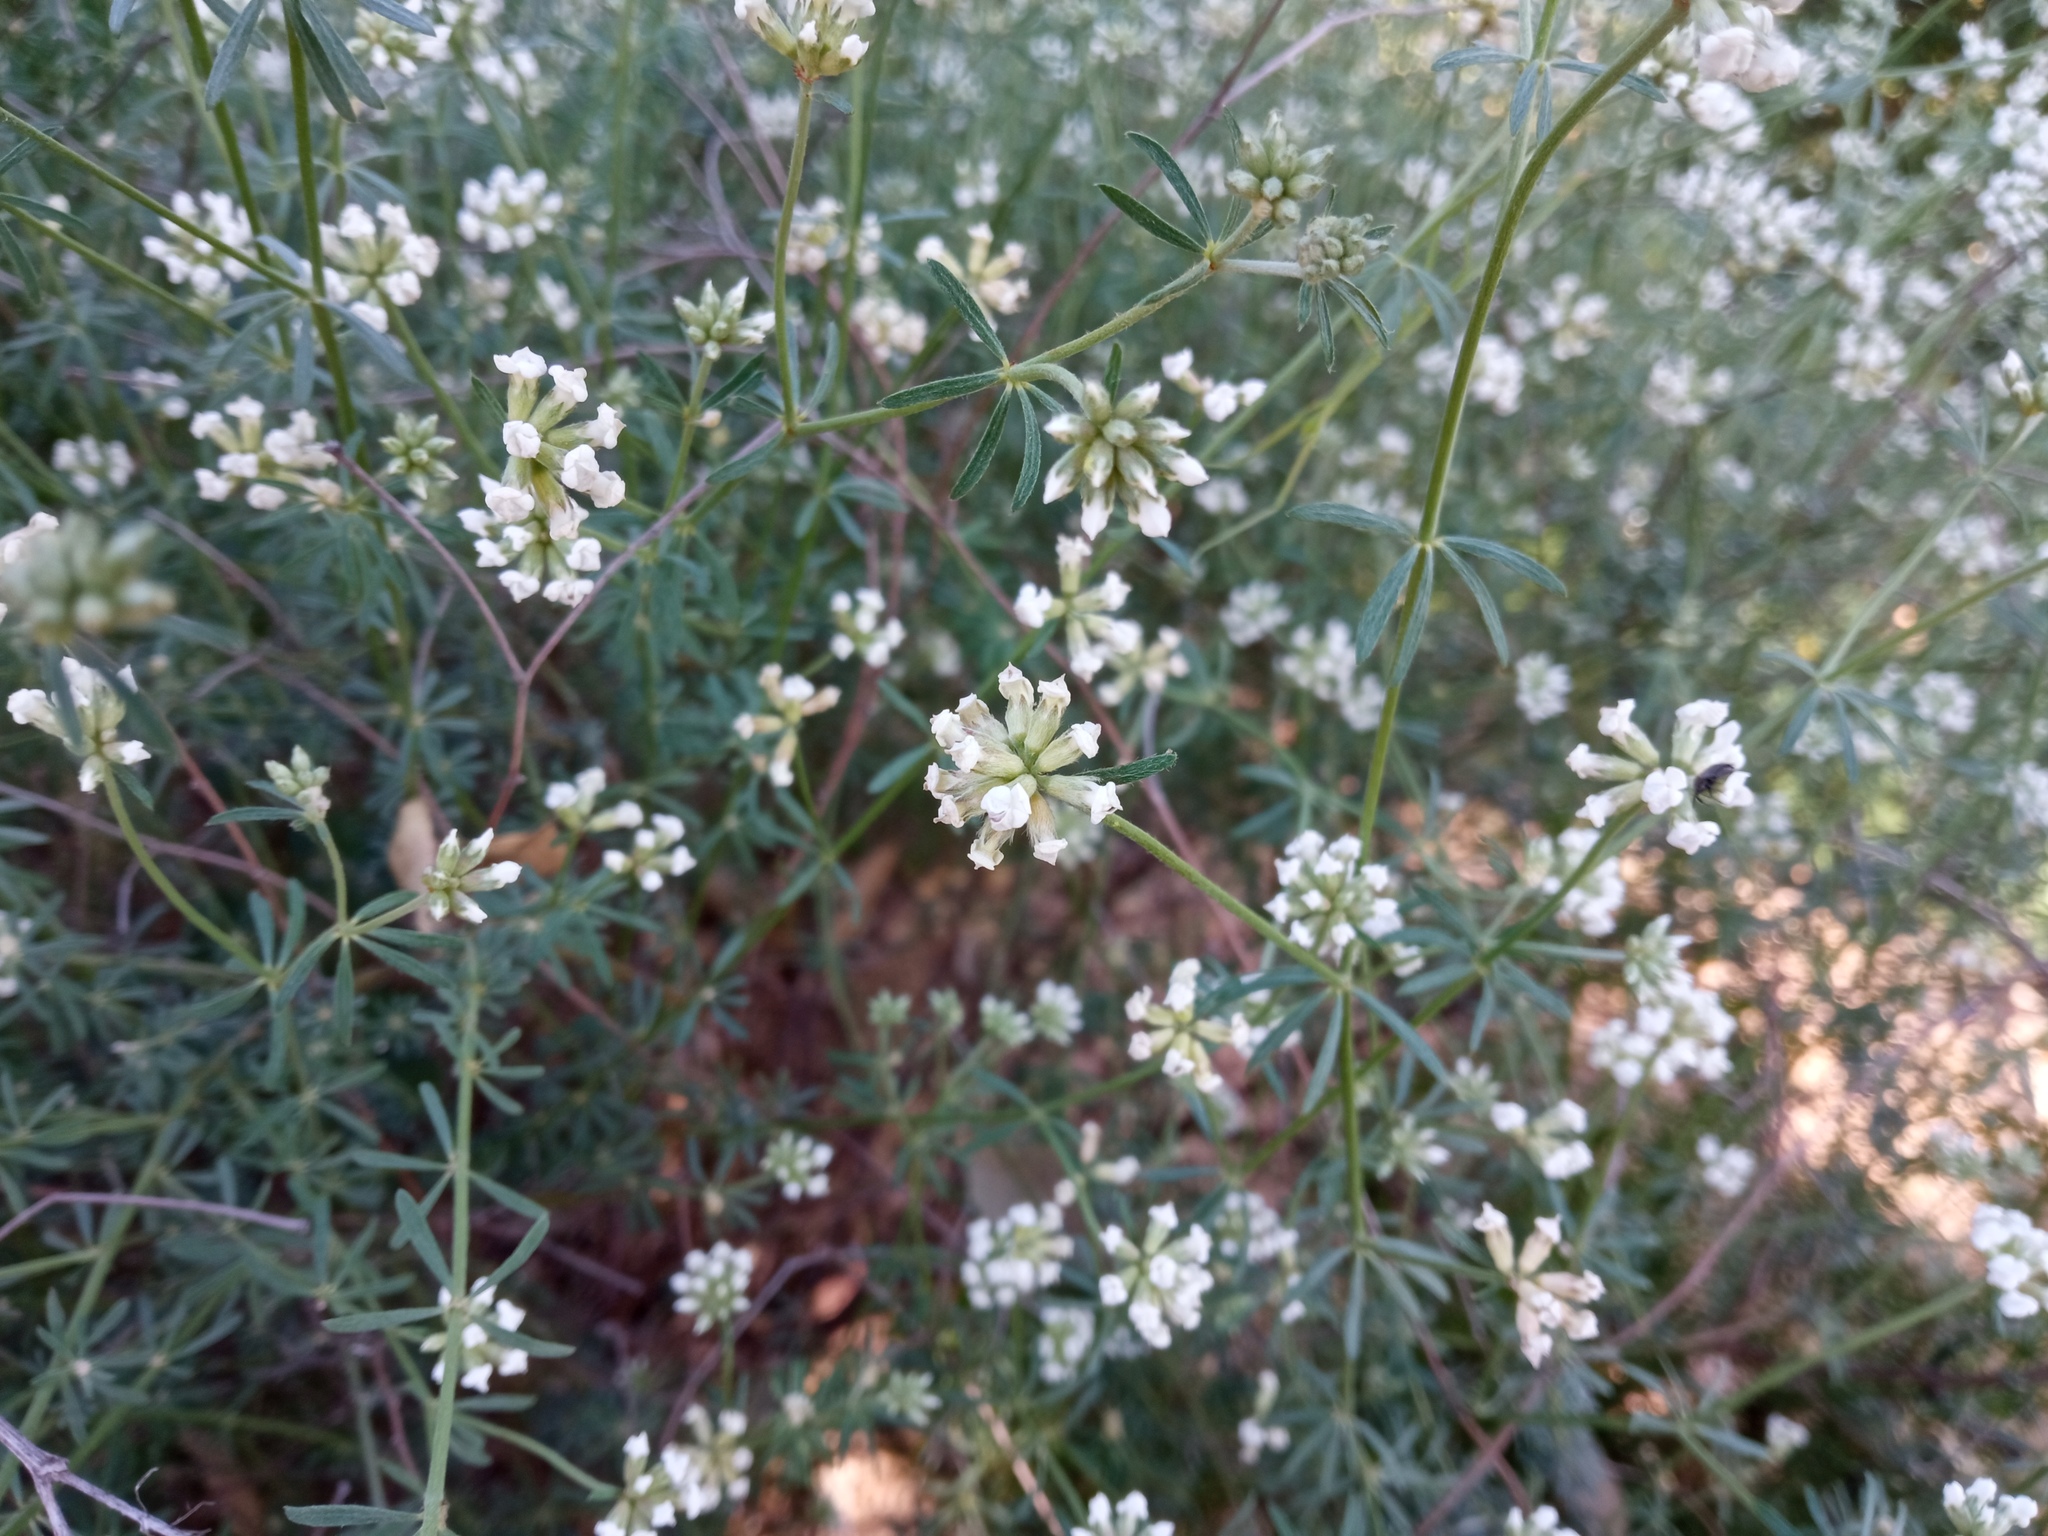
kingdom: Plantae
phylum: Tracheophyta
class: Magnoliopsida
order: Fabales
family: Fabaceae
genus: Lotus
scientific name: Lotus dorycnium
